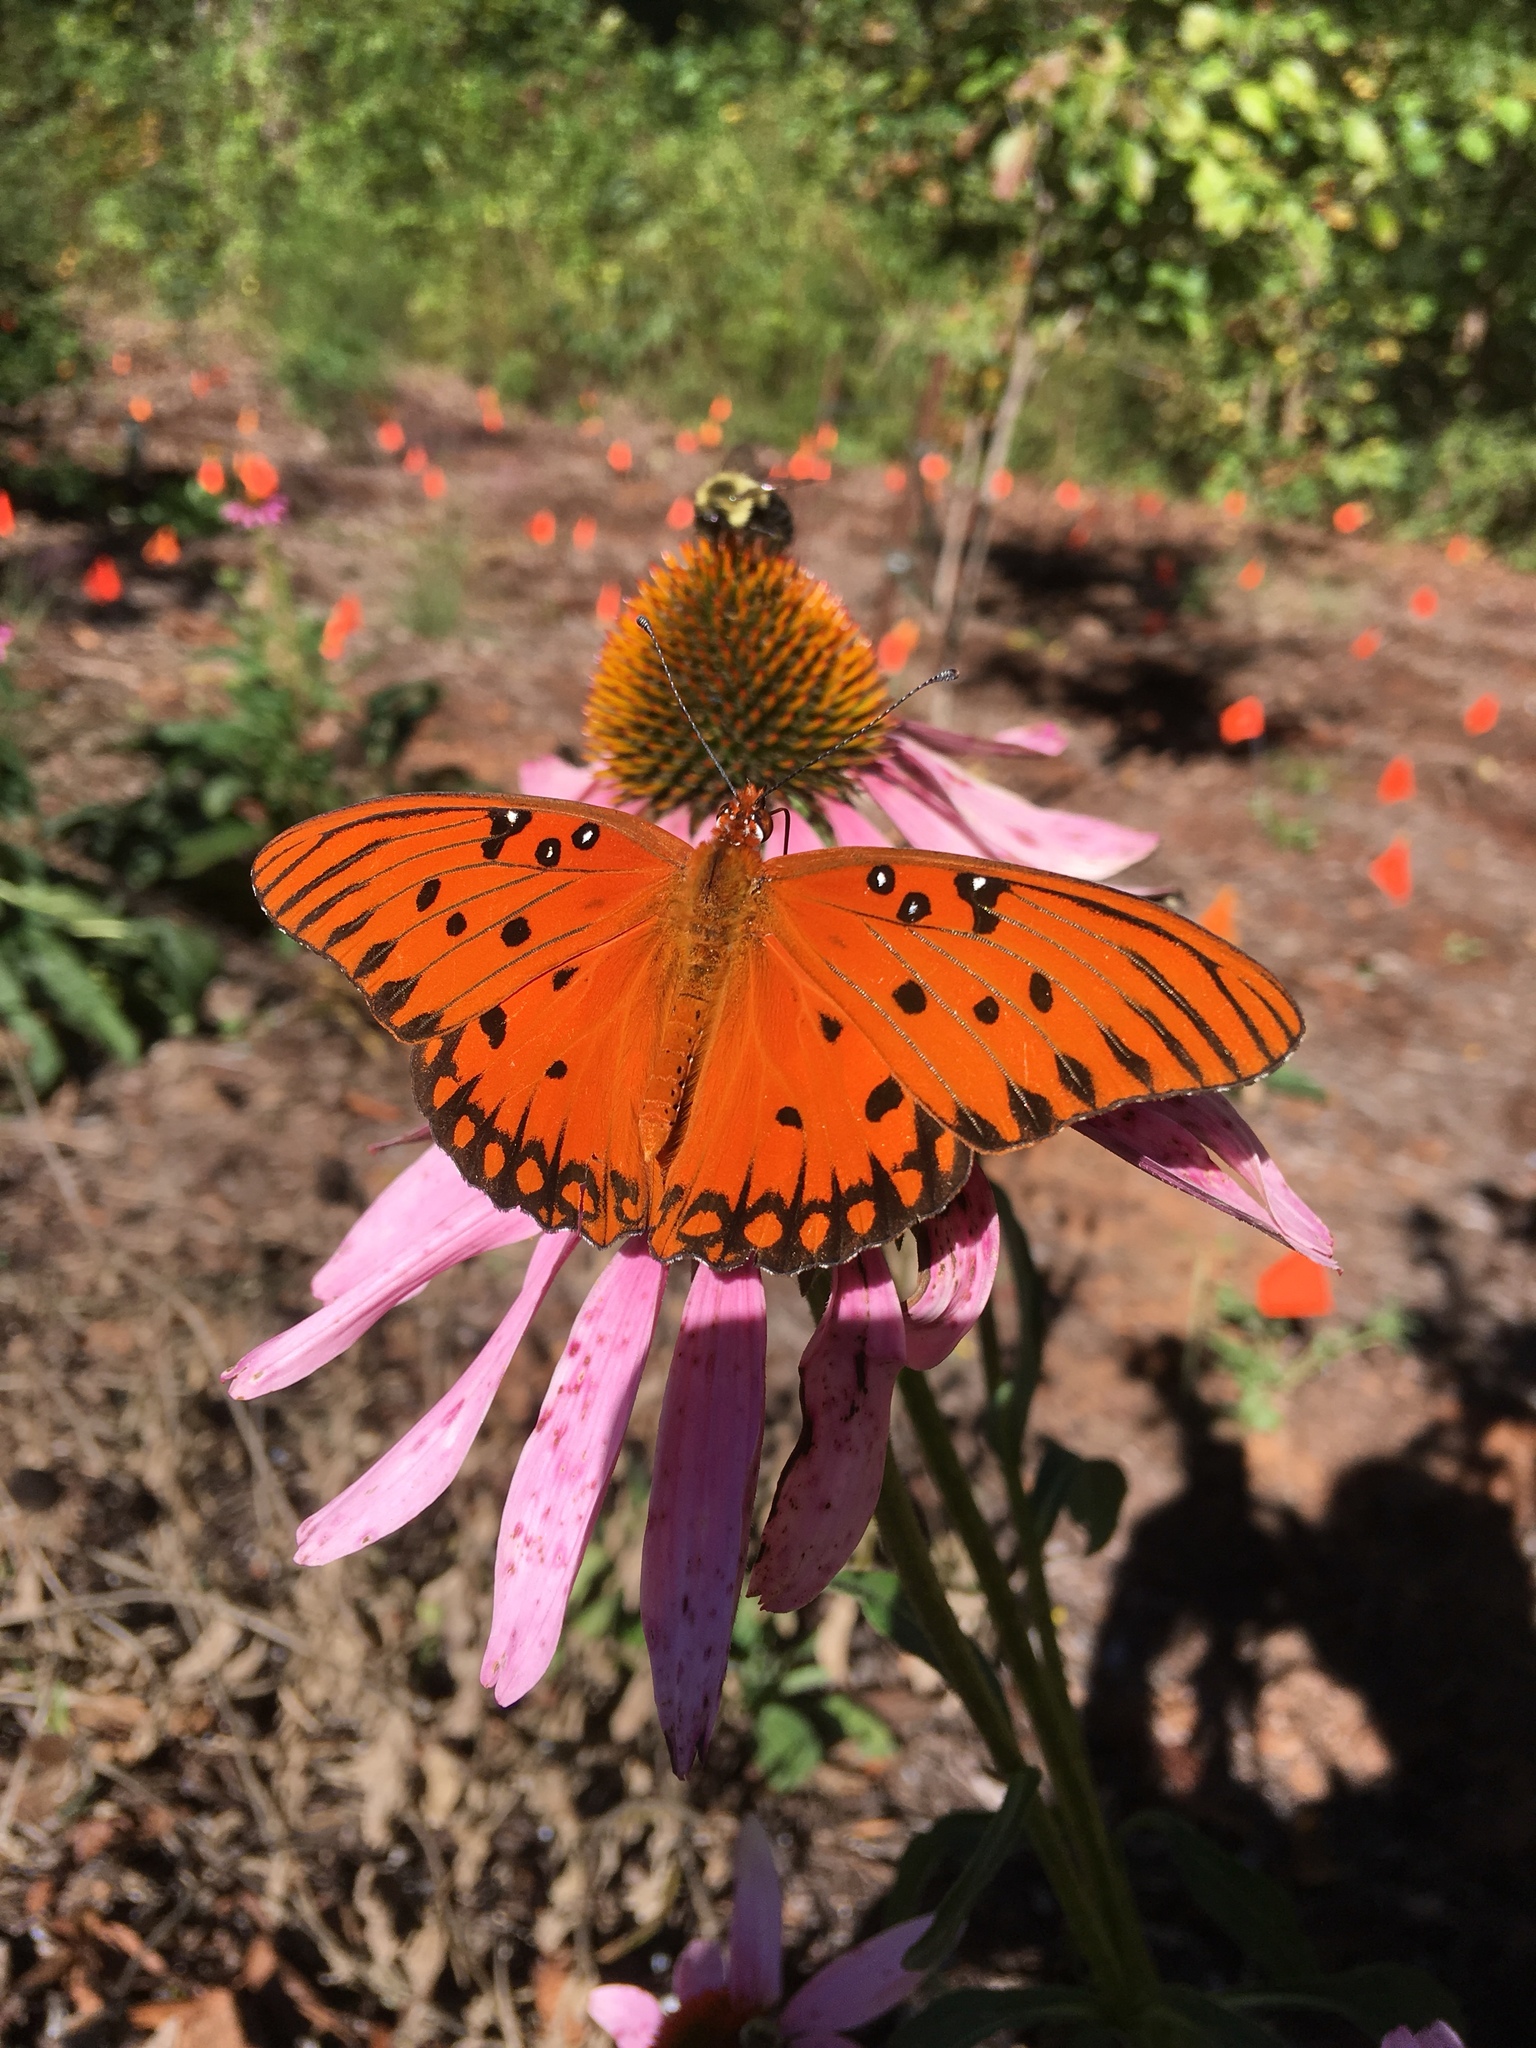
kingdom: Animalia
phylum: Arthropoda
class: Insecta
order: Lepidoptera
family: Nymphalidae
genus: Dione
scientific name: Dione vanillae
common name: Gulf fritillary
